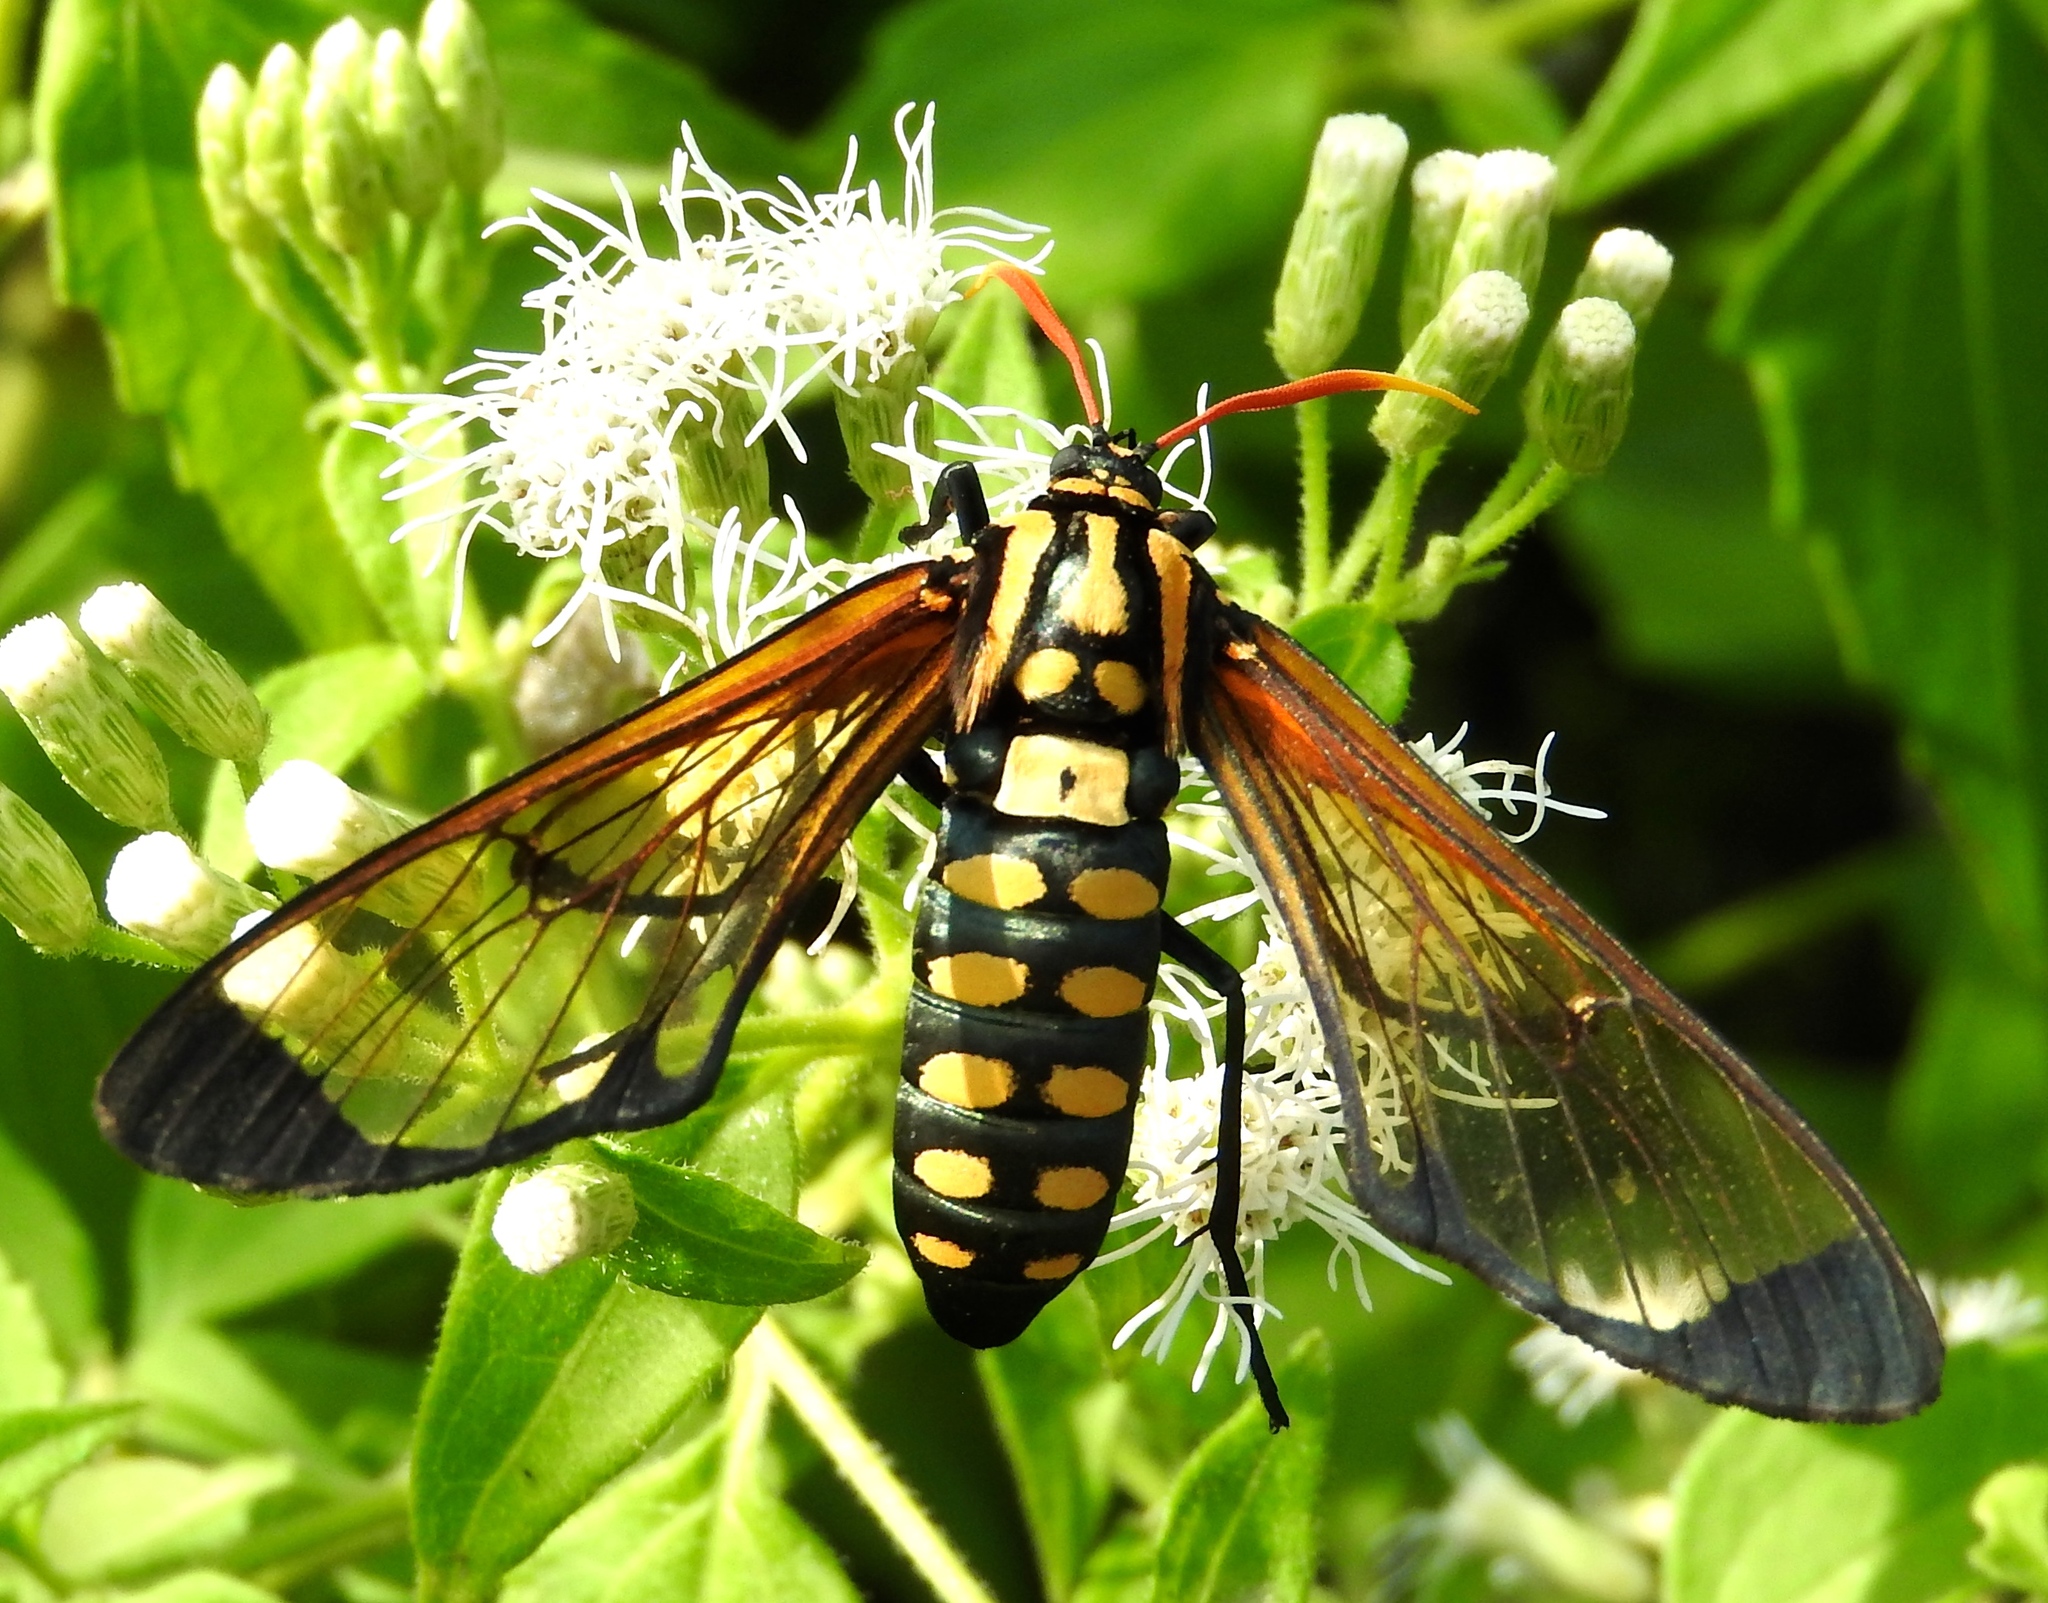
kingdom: Animalia
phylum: Arthropoda
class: Insecta
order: Lepidoptera
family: Erebidae
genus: Isanthrene
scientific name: Isanthrene perboscii
